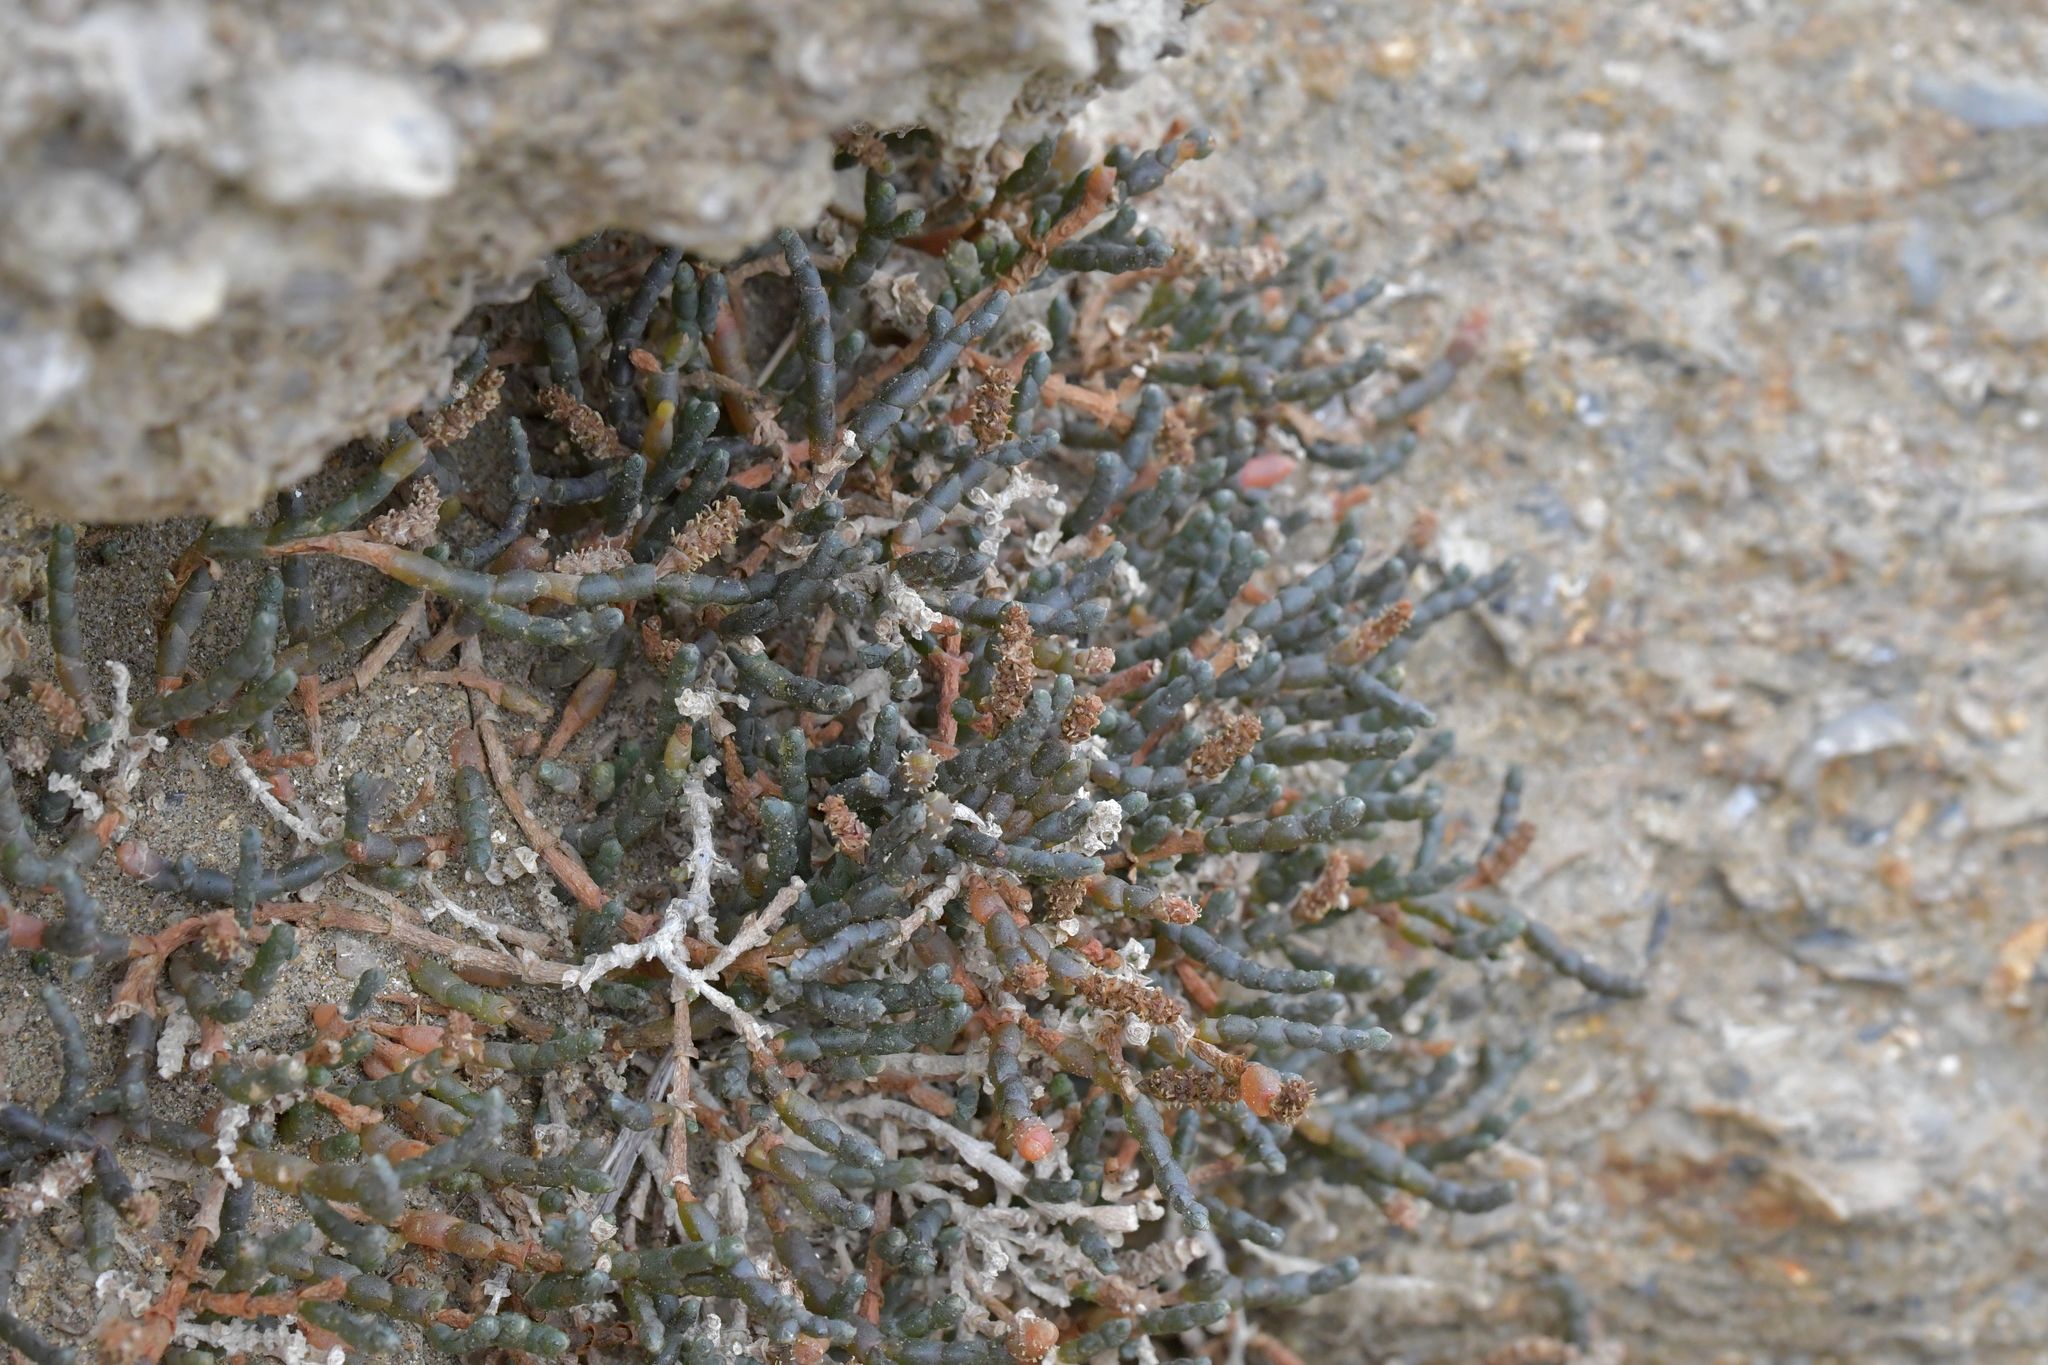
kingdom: Plantae
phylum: Tracheophyta
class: Magnoliopsida
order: Caryophyllales
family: Amaranthaceae
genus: Salicornia
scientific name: Salicornia quinqueflora
